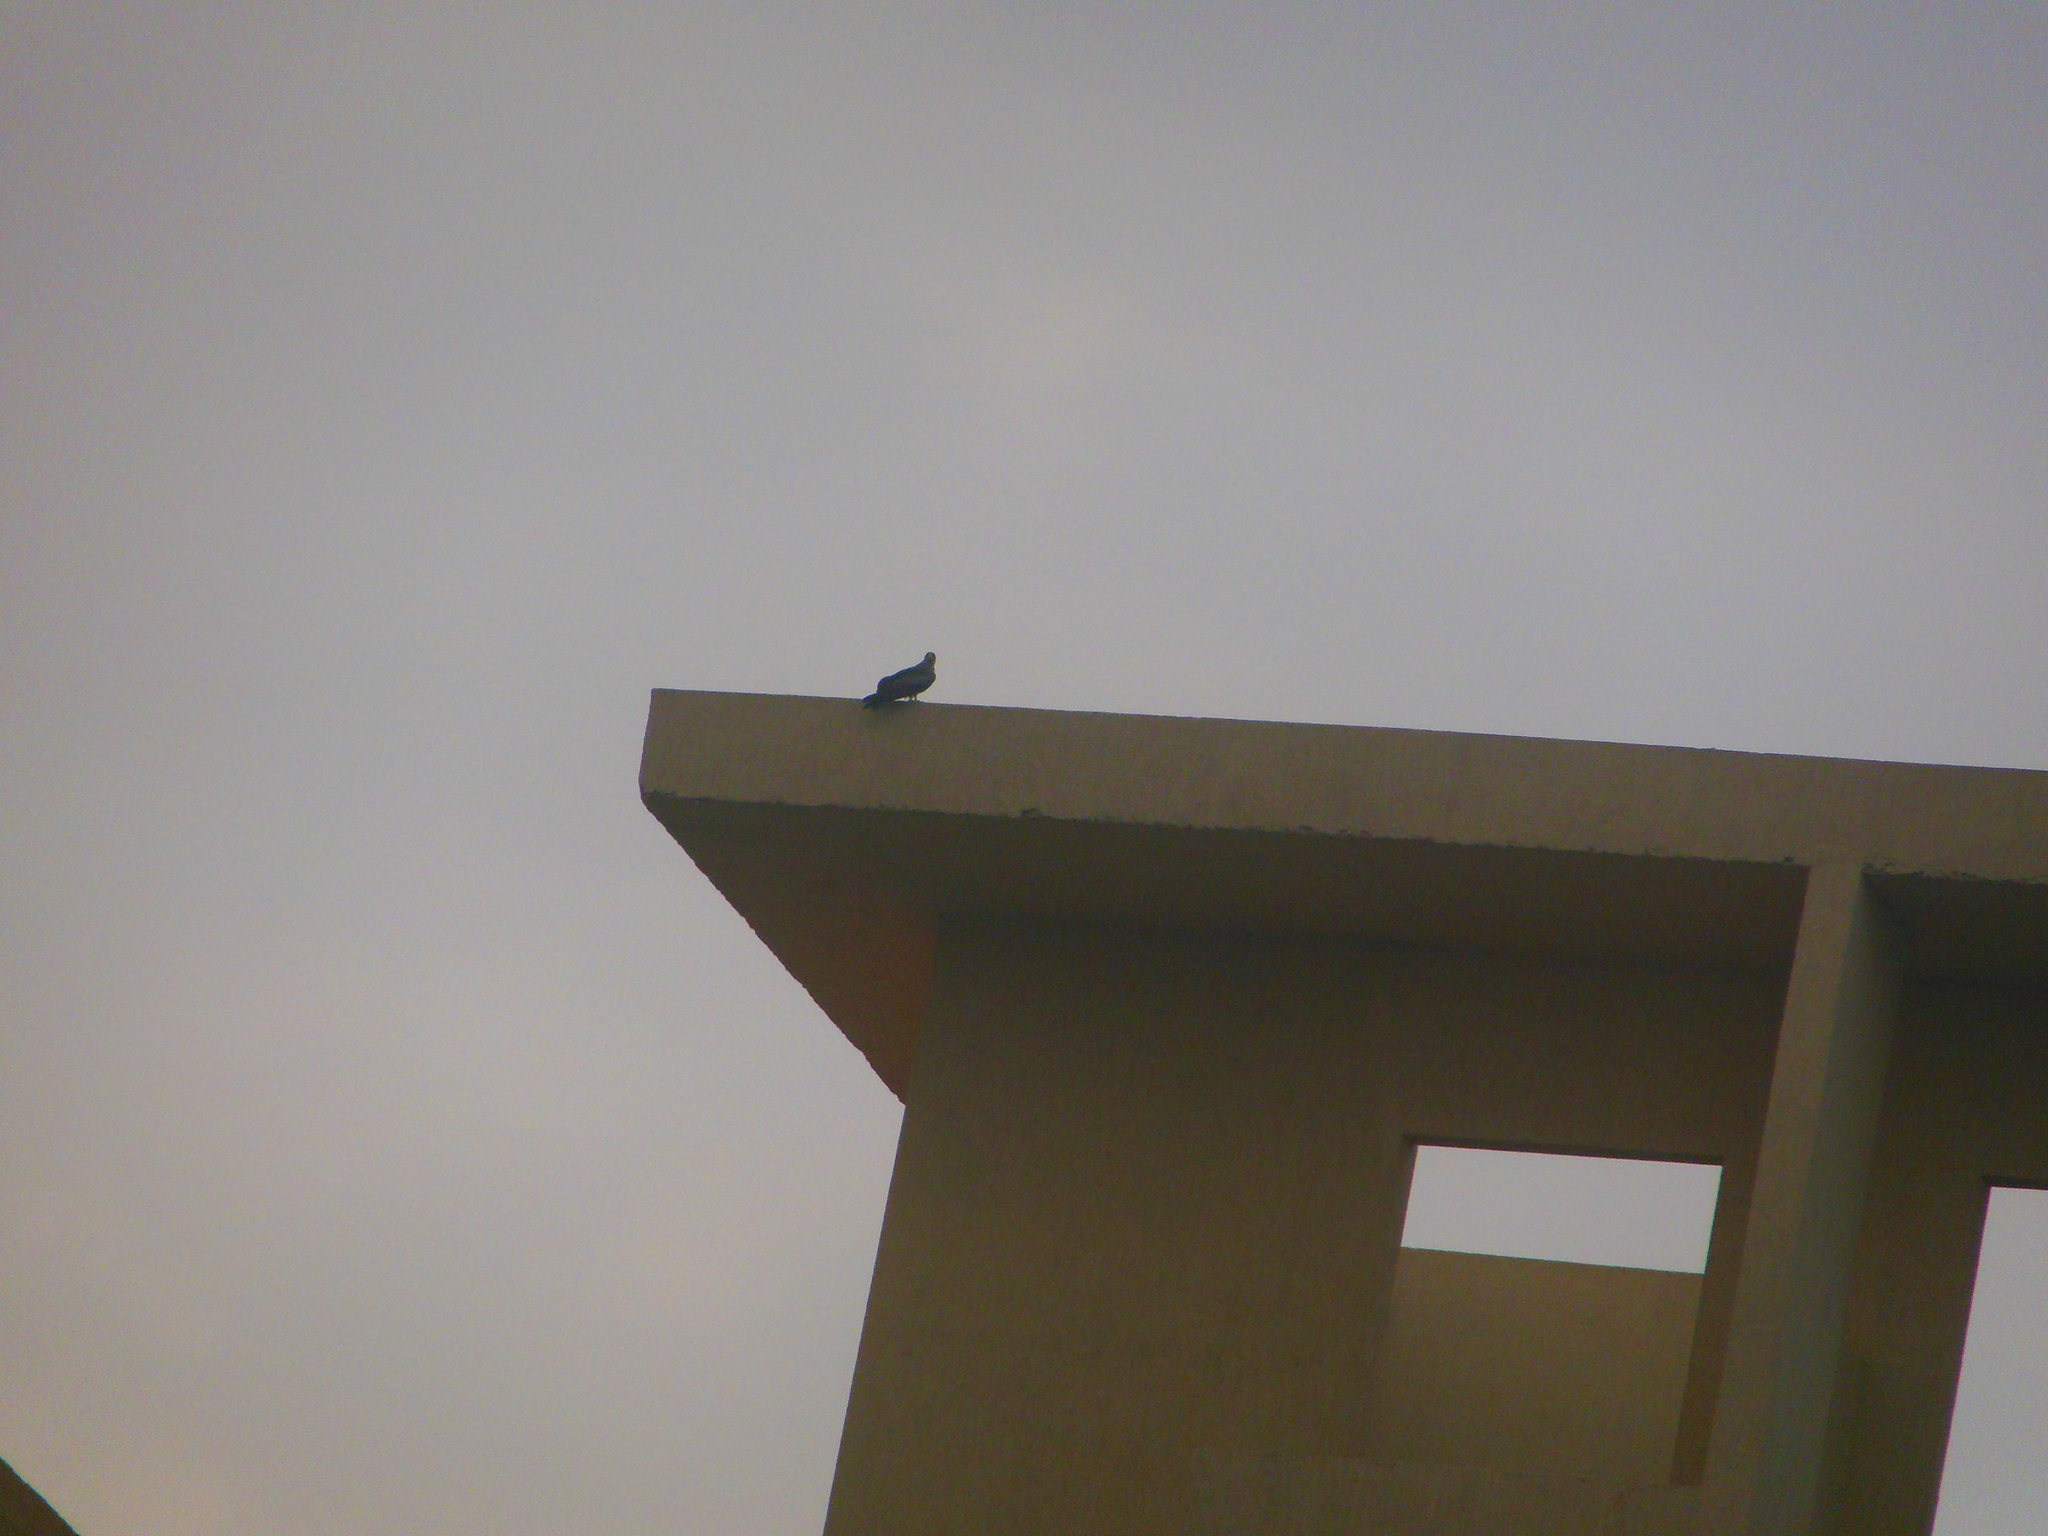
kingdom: Animalia
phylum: Chordata
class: Aves
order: Accipitriformes
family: Accipitridae
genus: Milvus
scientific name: Milvus migrans
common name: Black kite
